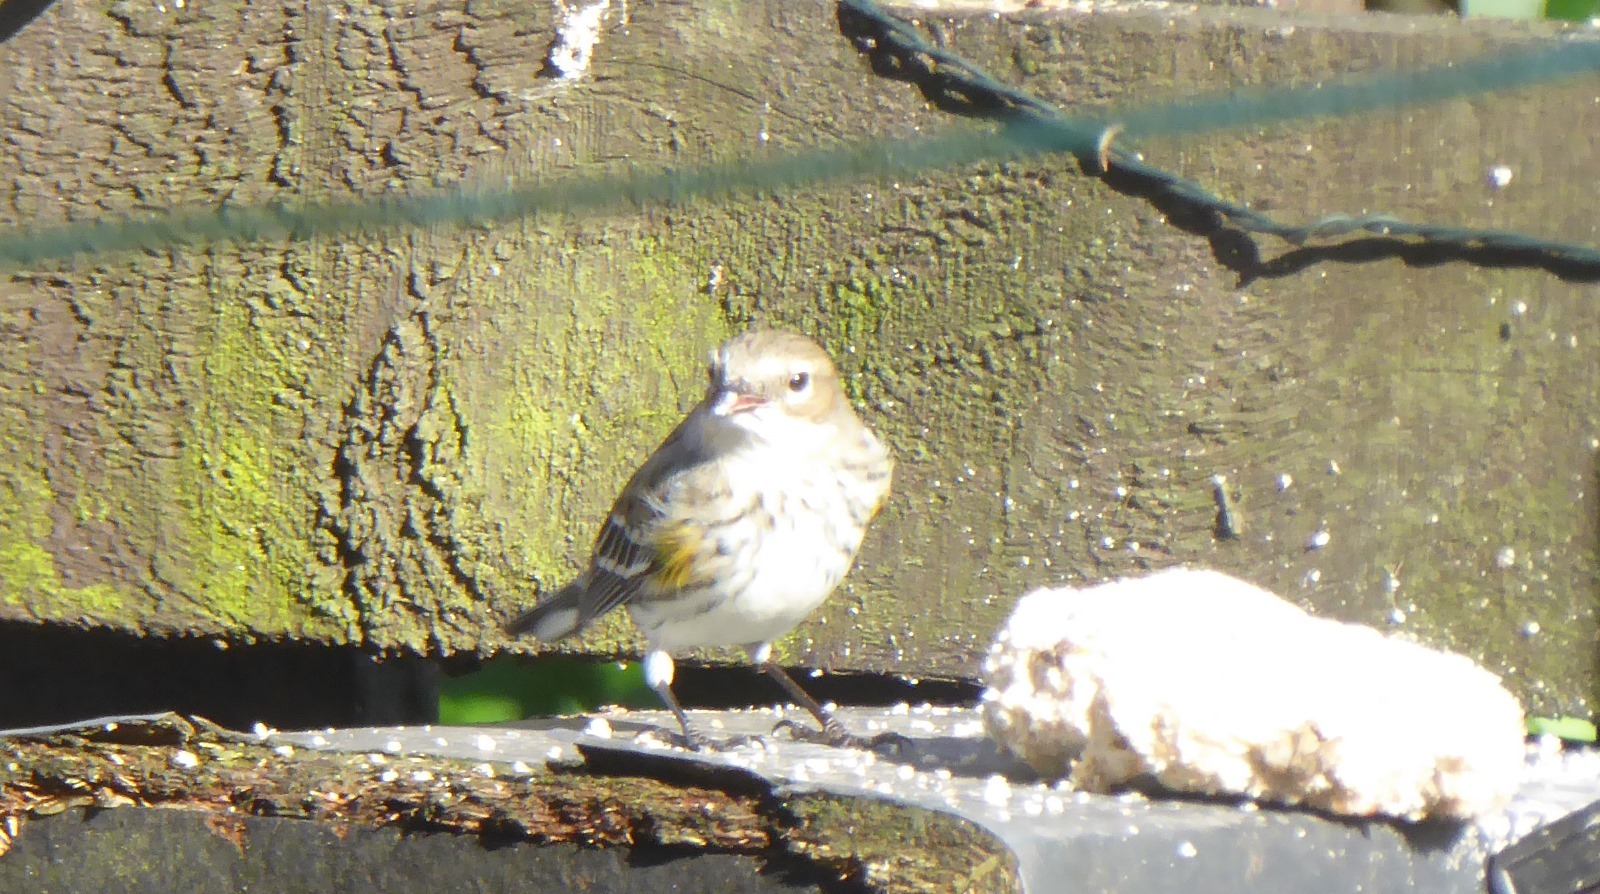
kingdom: Animalia
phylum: Chordata
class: Aves
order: Passeriformes
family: Parulidae
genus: Setophaga
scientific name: Setophaga coronata
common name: Myrtle warbler
